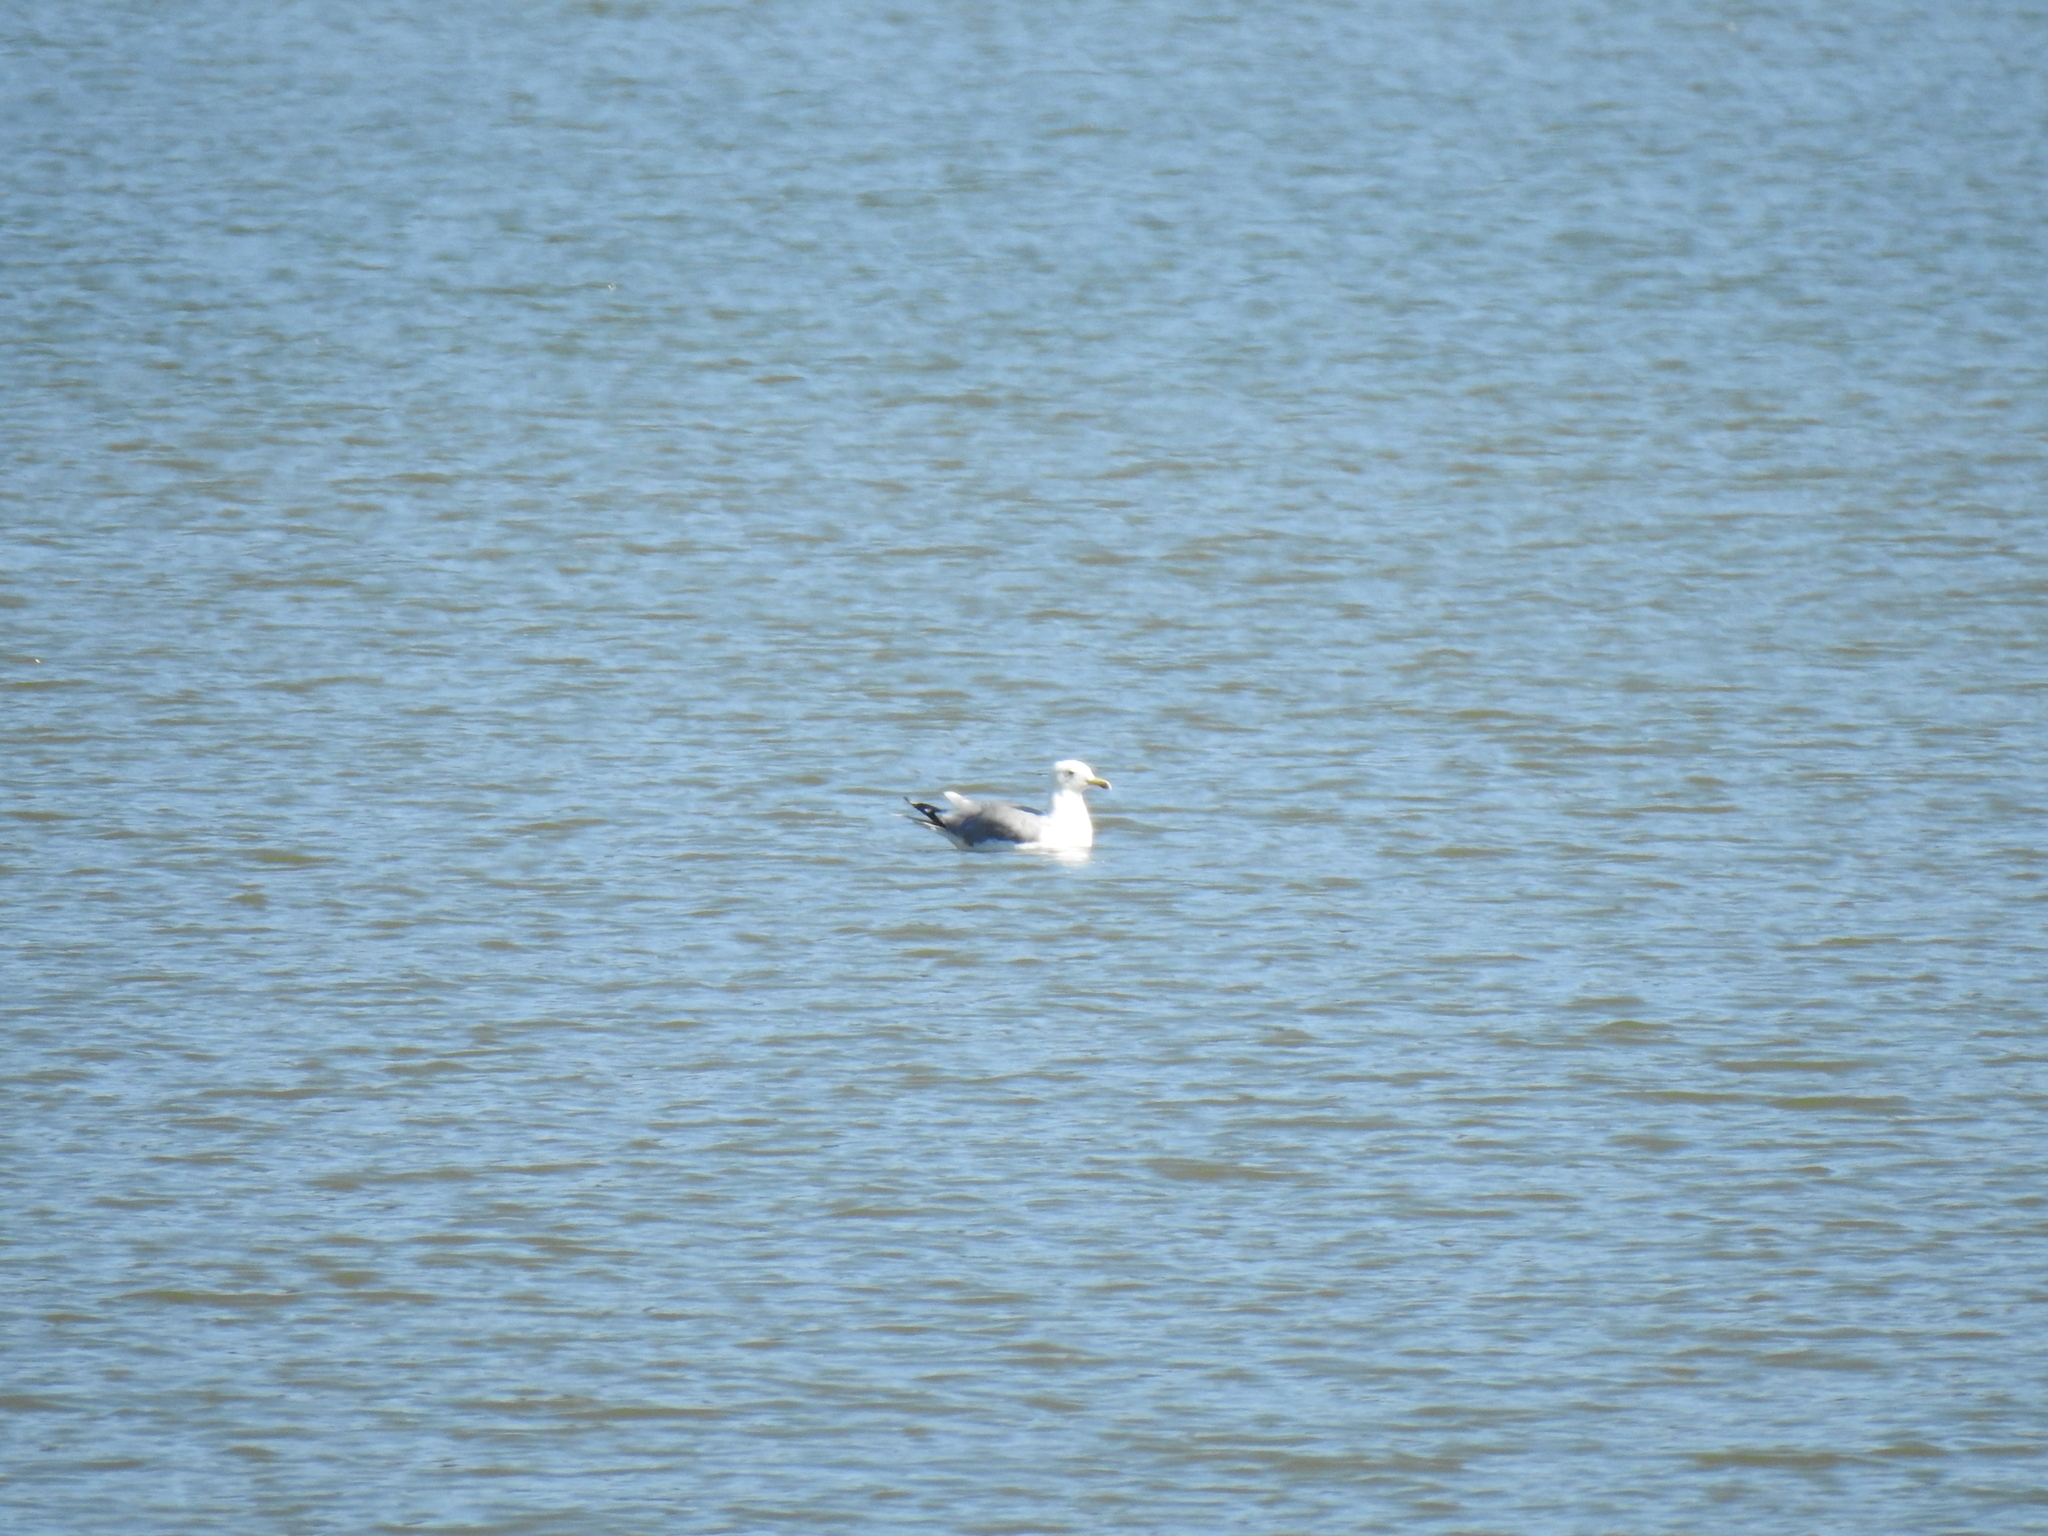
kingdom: Animalia
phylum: Chordata
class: Aves
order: Charadriiformes
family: Laridae
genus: Larus
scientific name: Larus californicus
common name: California gull
